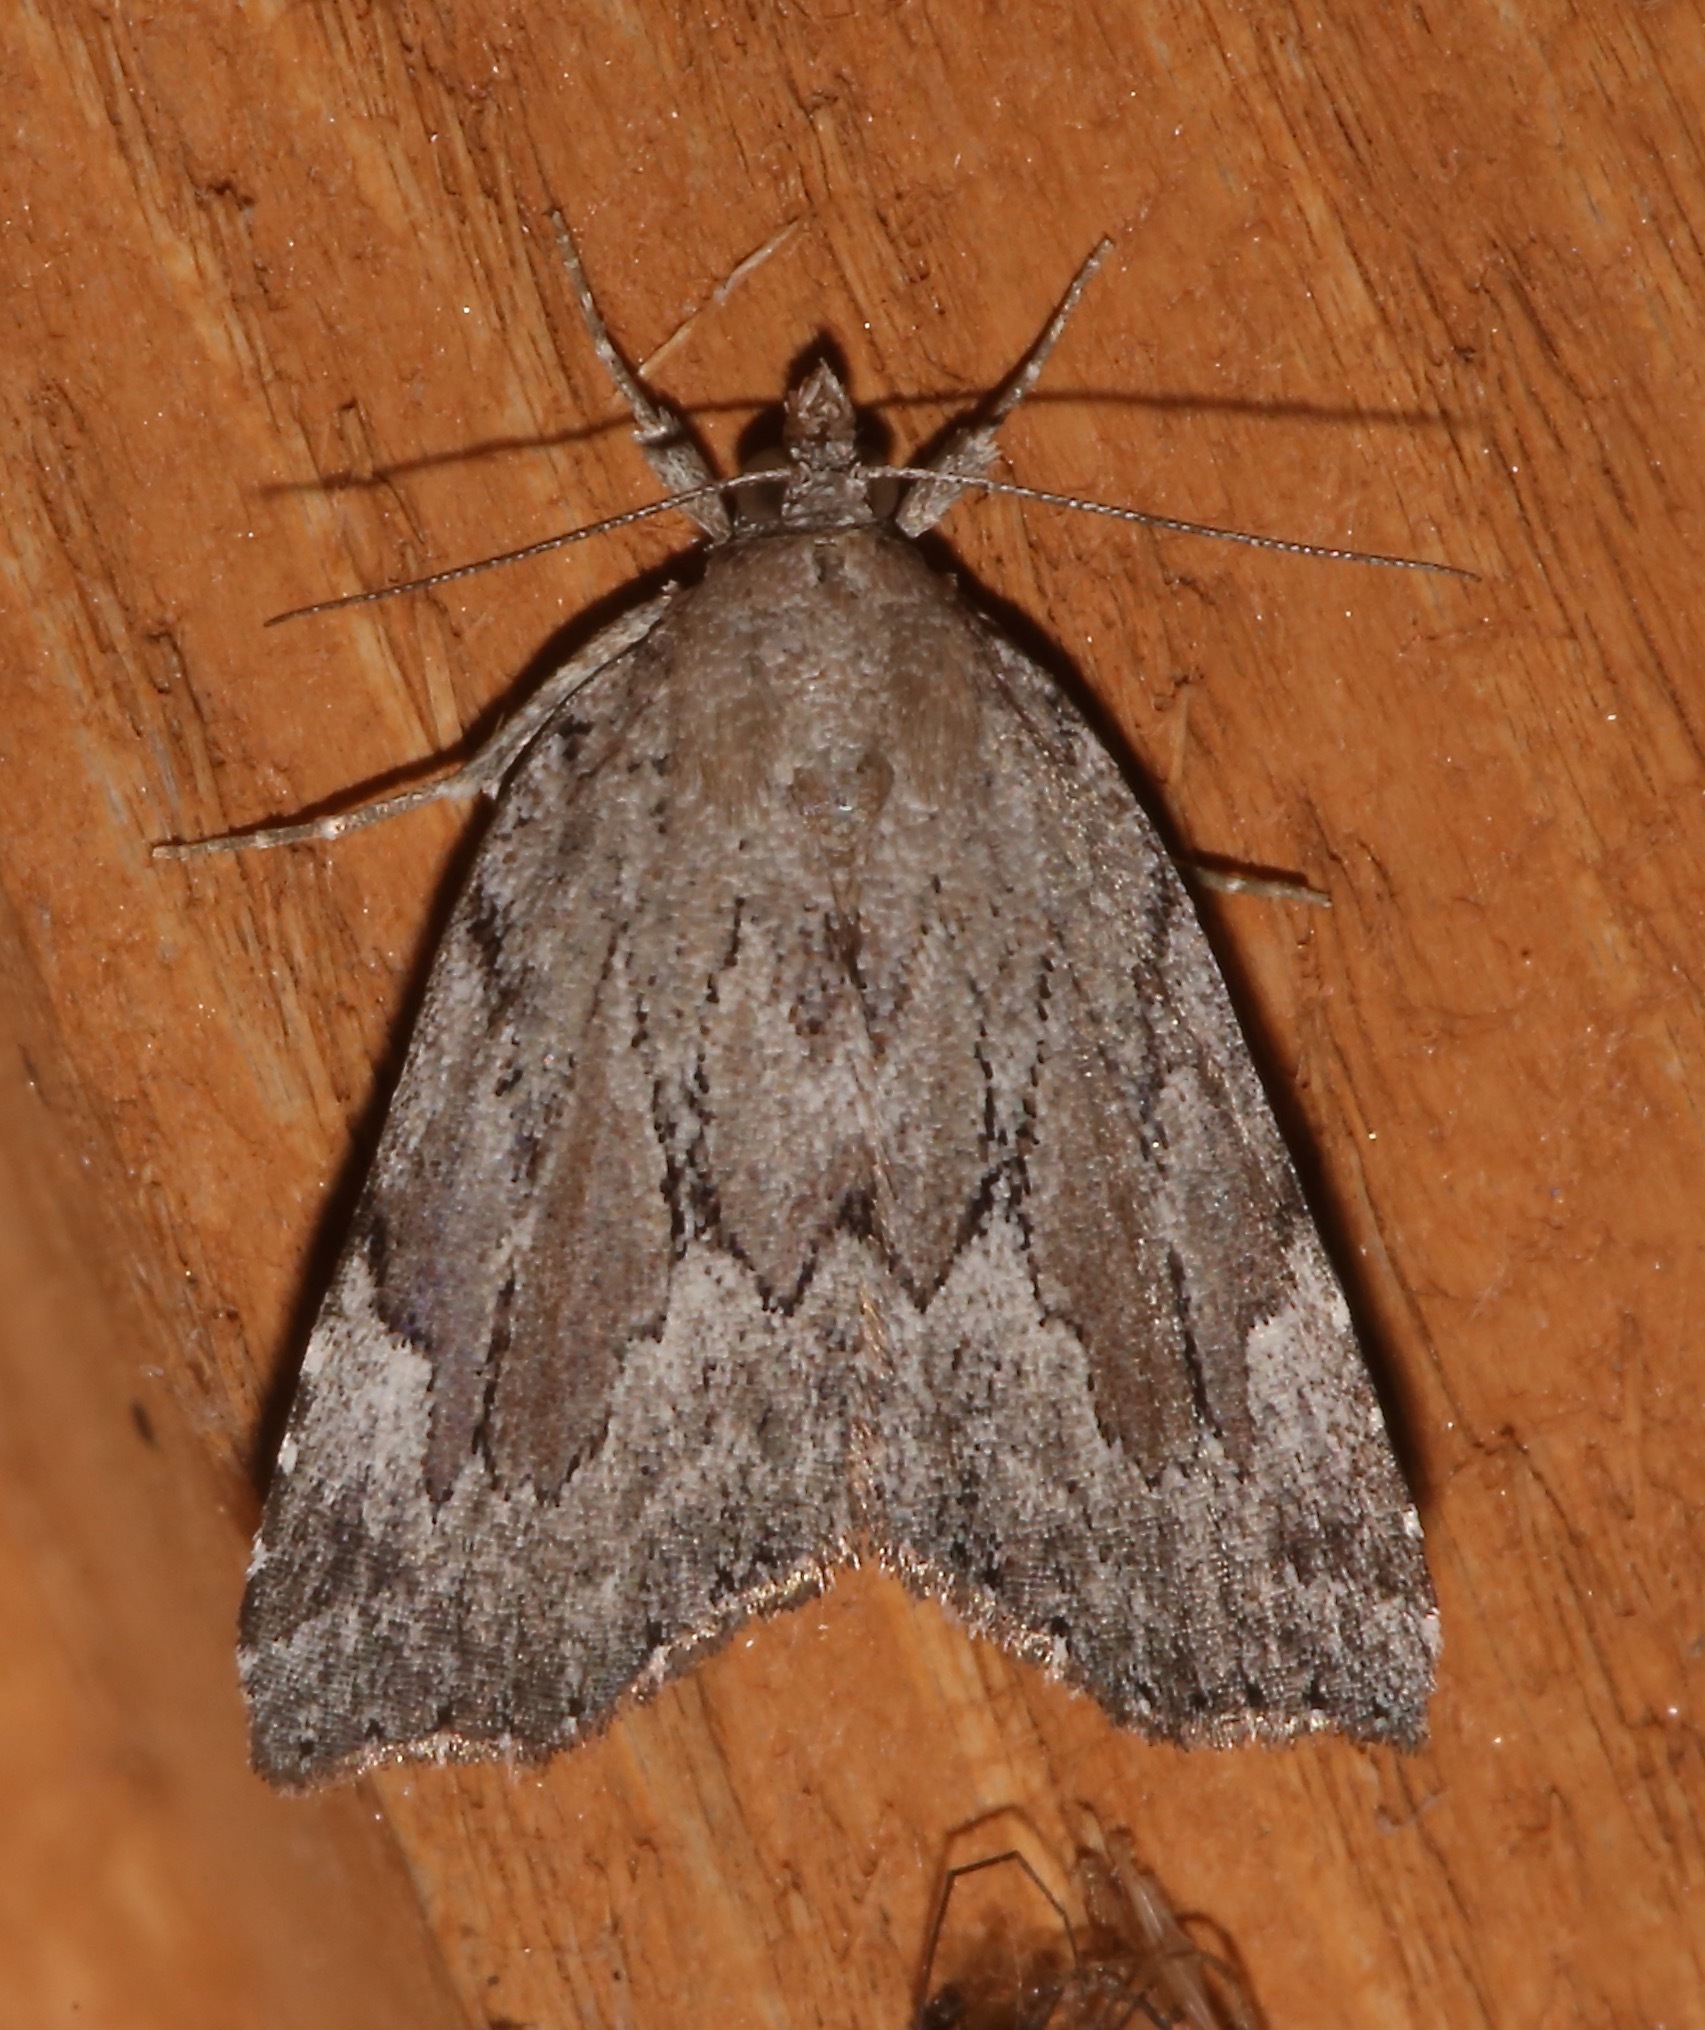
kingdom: Animalia
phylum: Arthropoda
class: Insecta
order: Lepidoptera
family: Erebidae
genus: Cutina
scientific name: Cutina albopunctella
